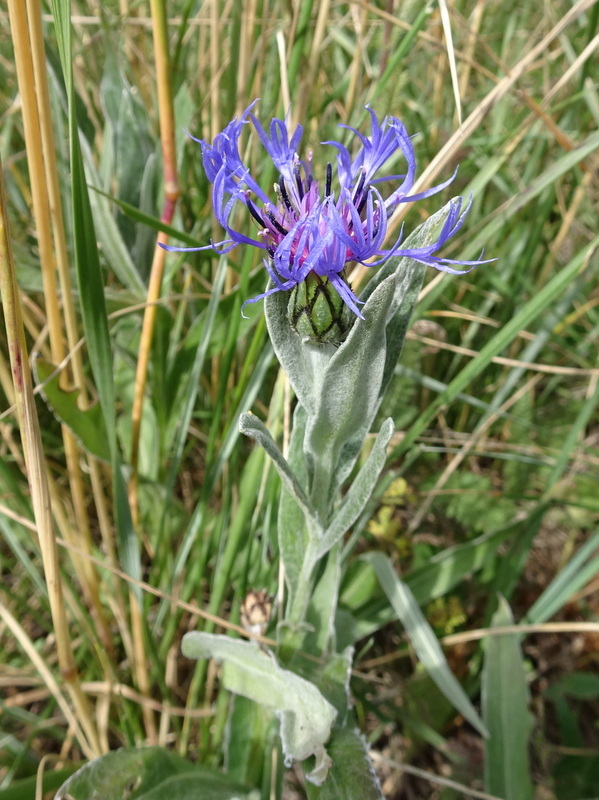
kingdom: Plantae
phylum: Tracheophyta
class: Magnoliopsida
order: Asterales
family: Asteraceae
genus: Centaurea
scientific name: Centaurea montana
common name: Perennial cornflower
